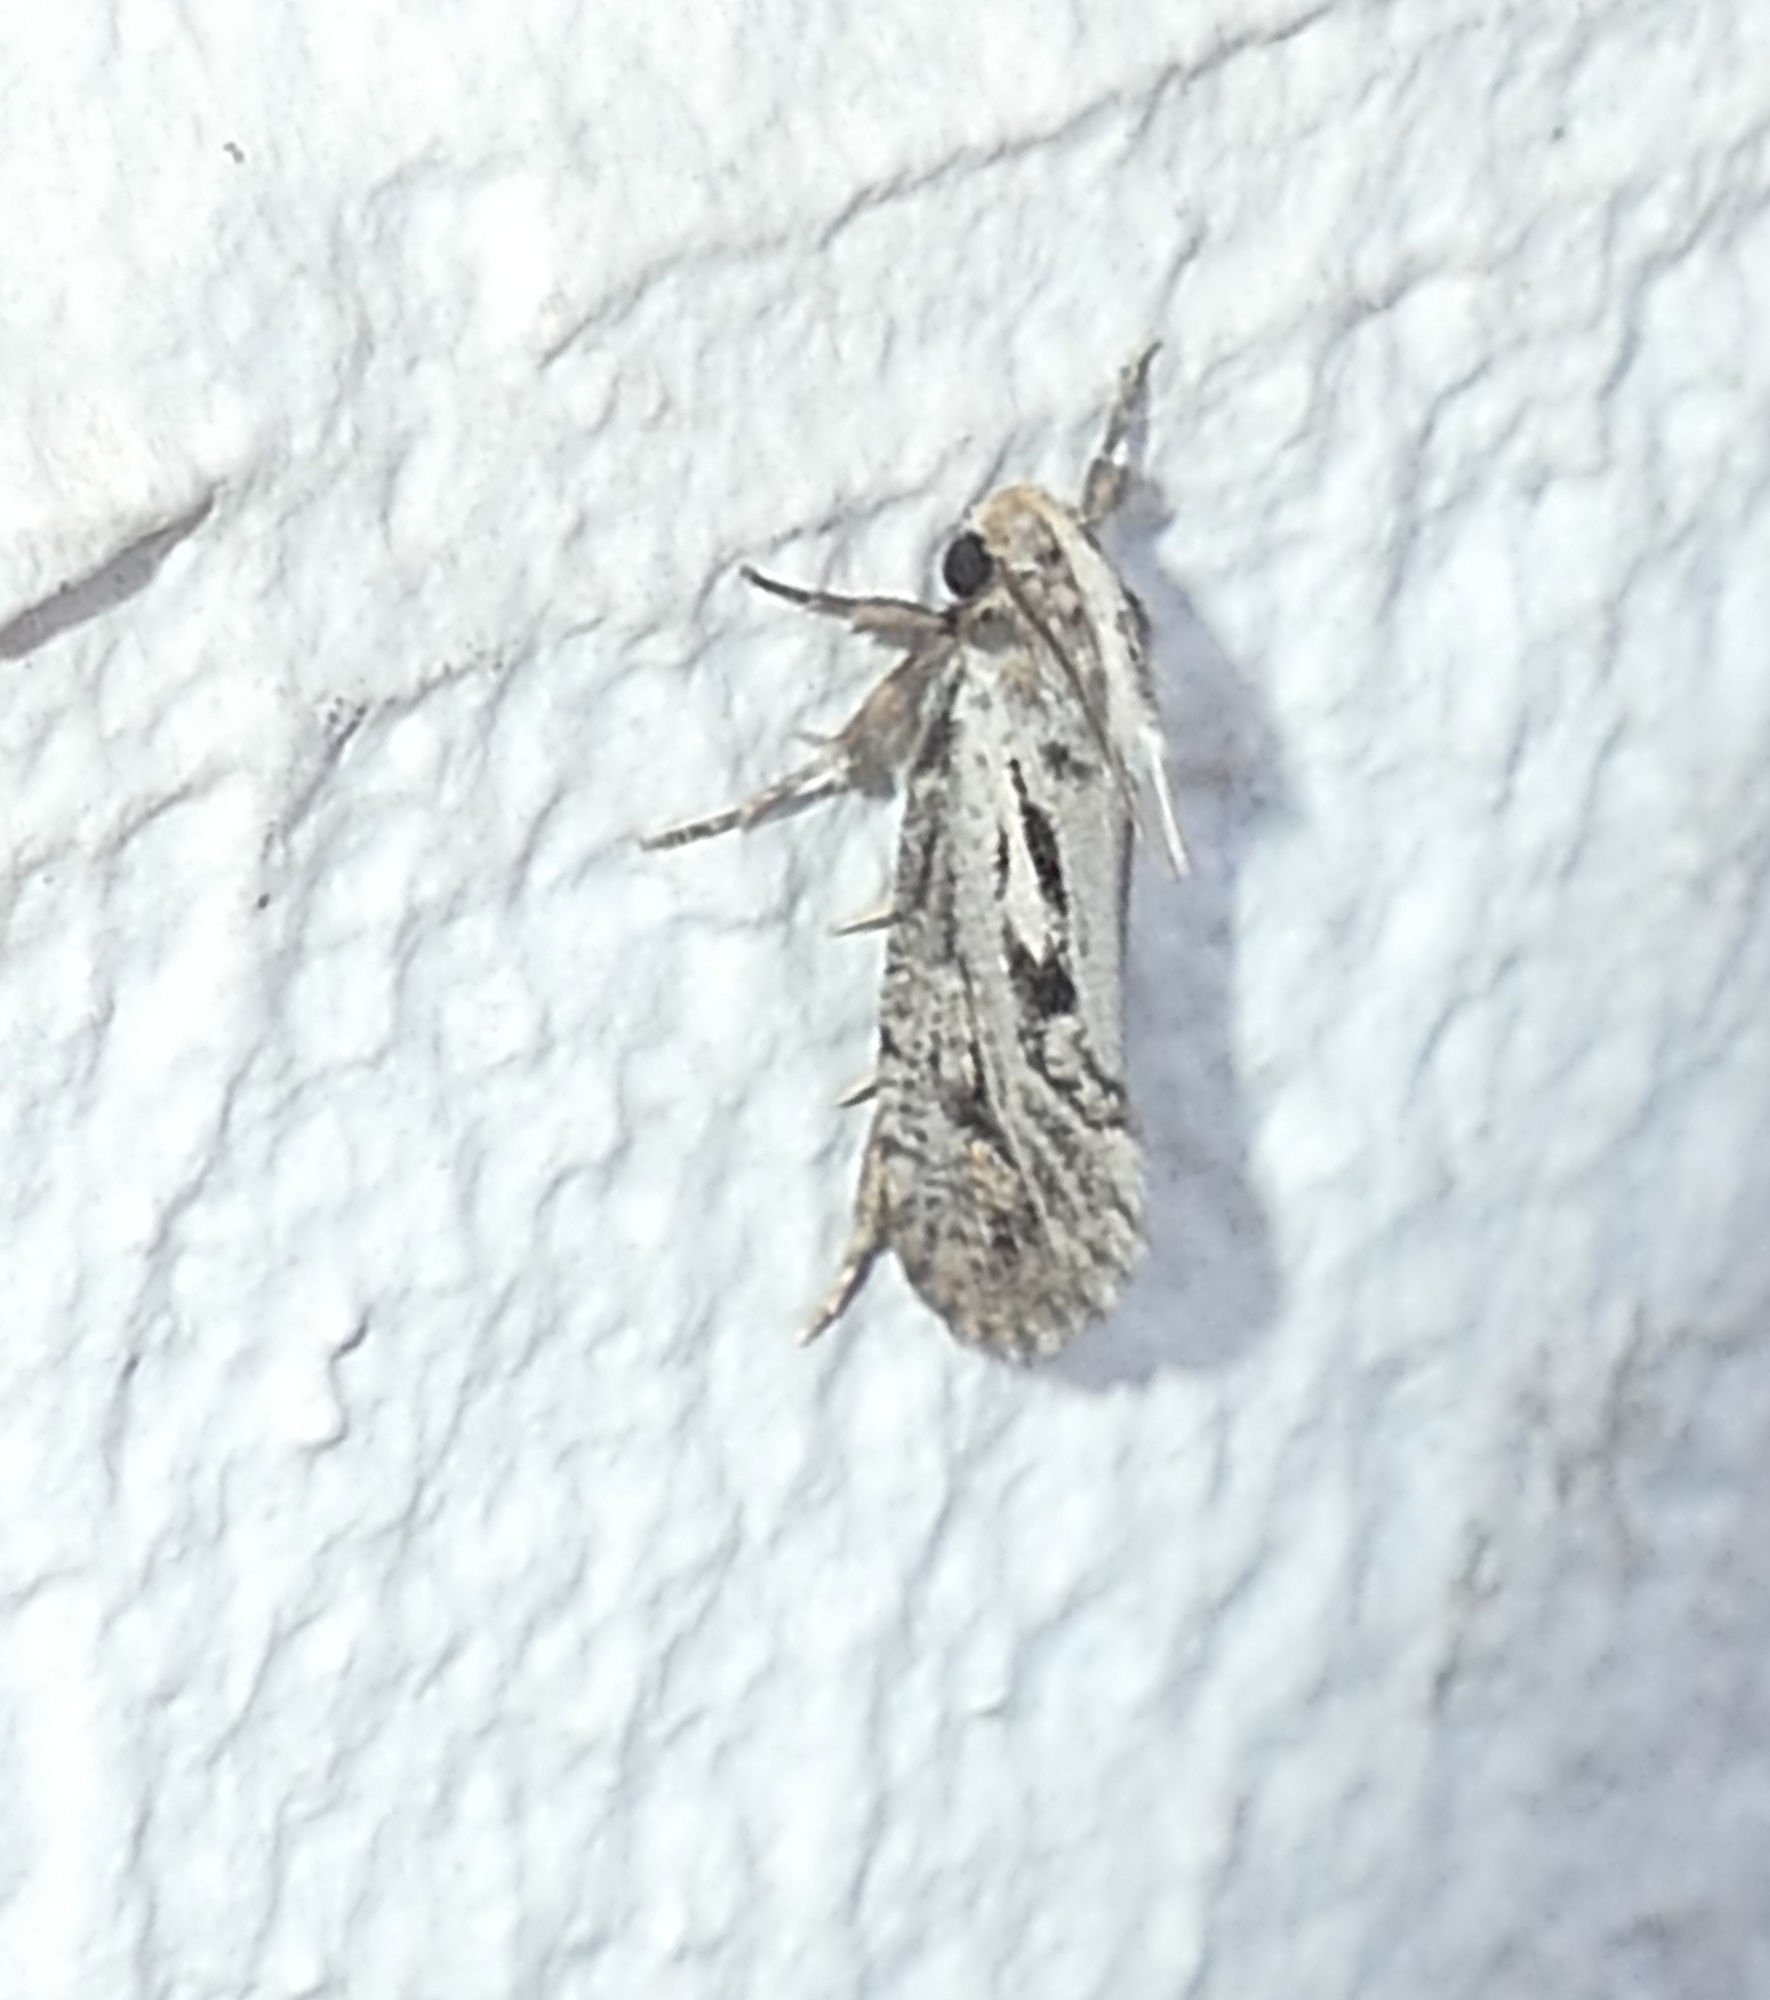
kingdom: Animalia
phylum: Arthropoda
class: Insecta
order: Lepidoptera
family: Tineidae
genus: Acrolophus
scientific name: Acrolophus popeanella
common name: Clemens' grass tubeworm moth
